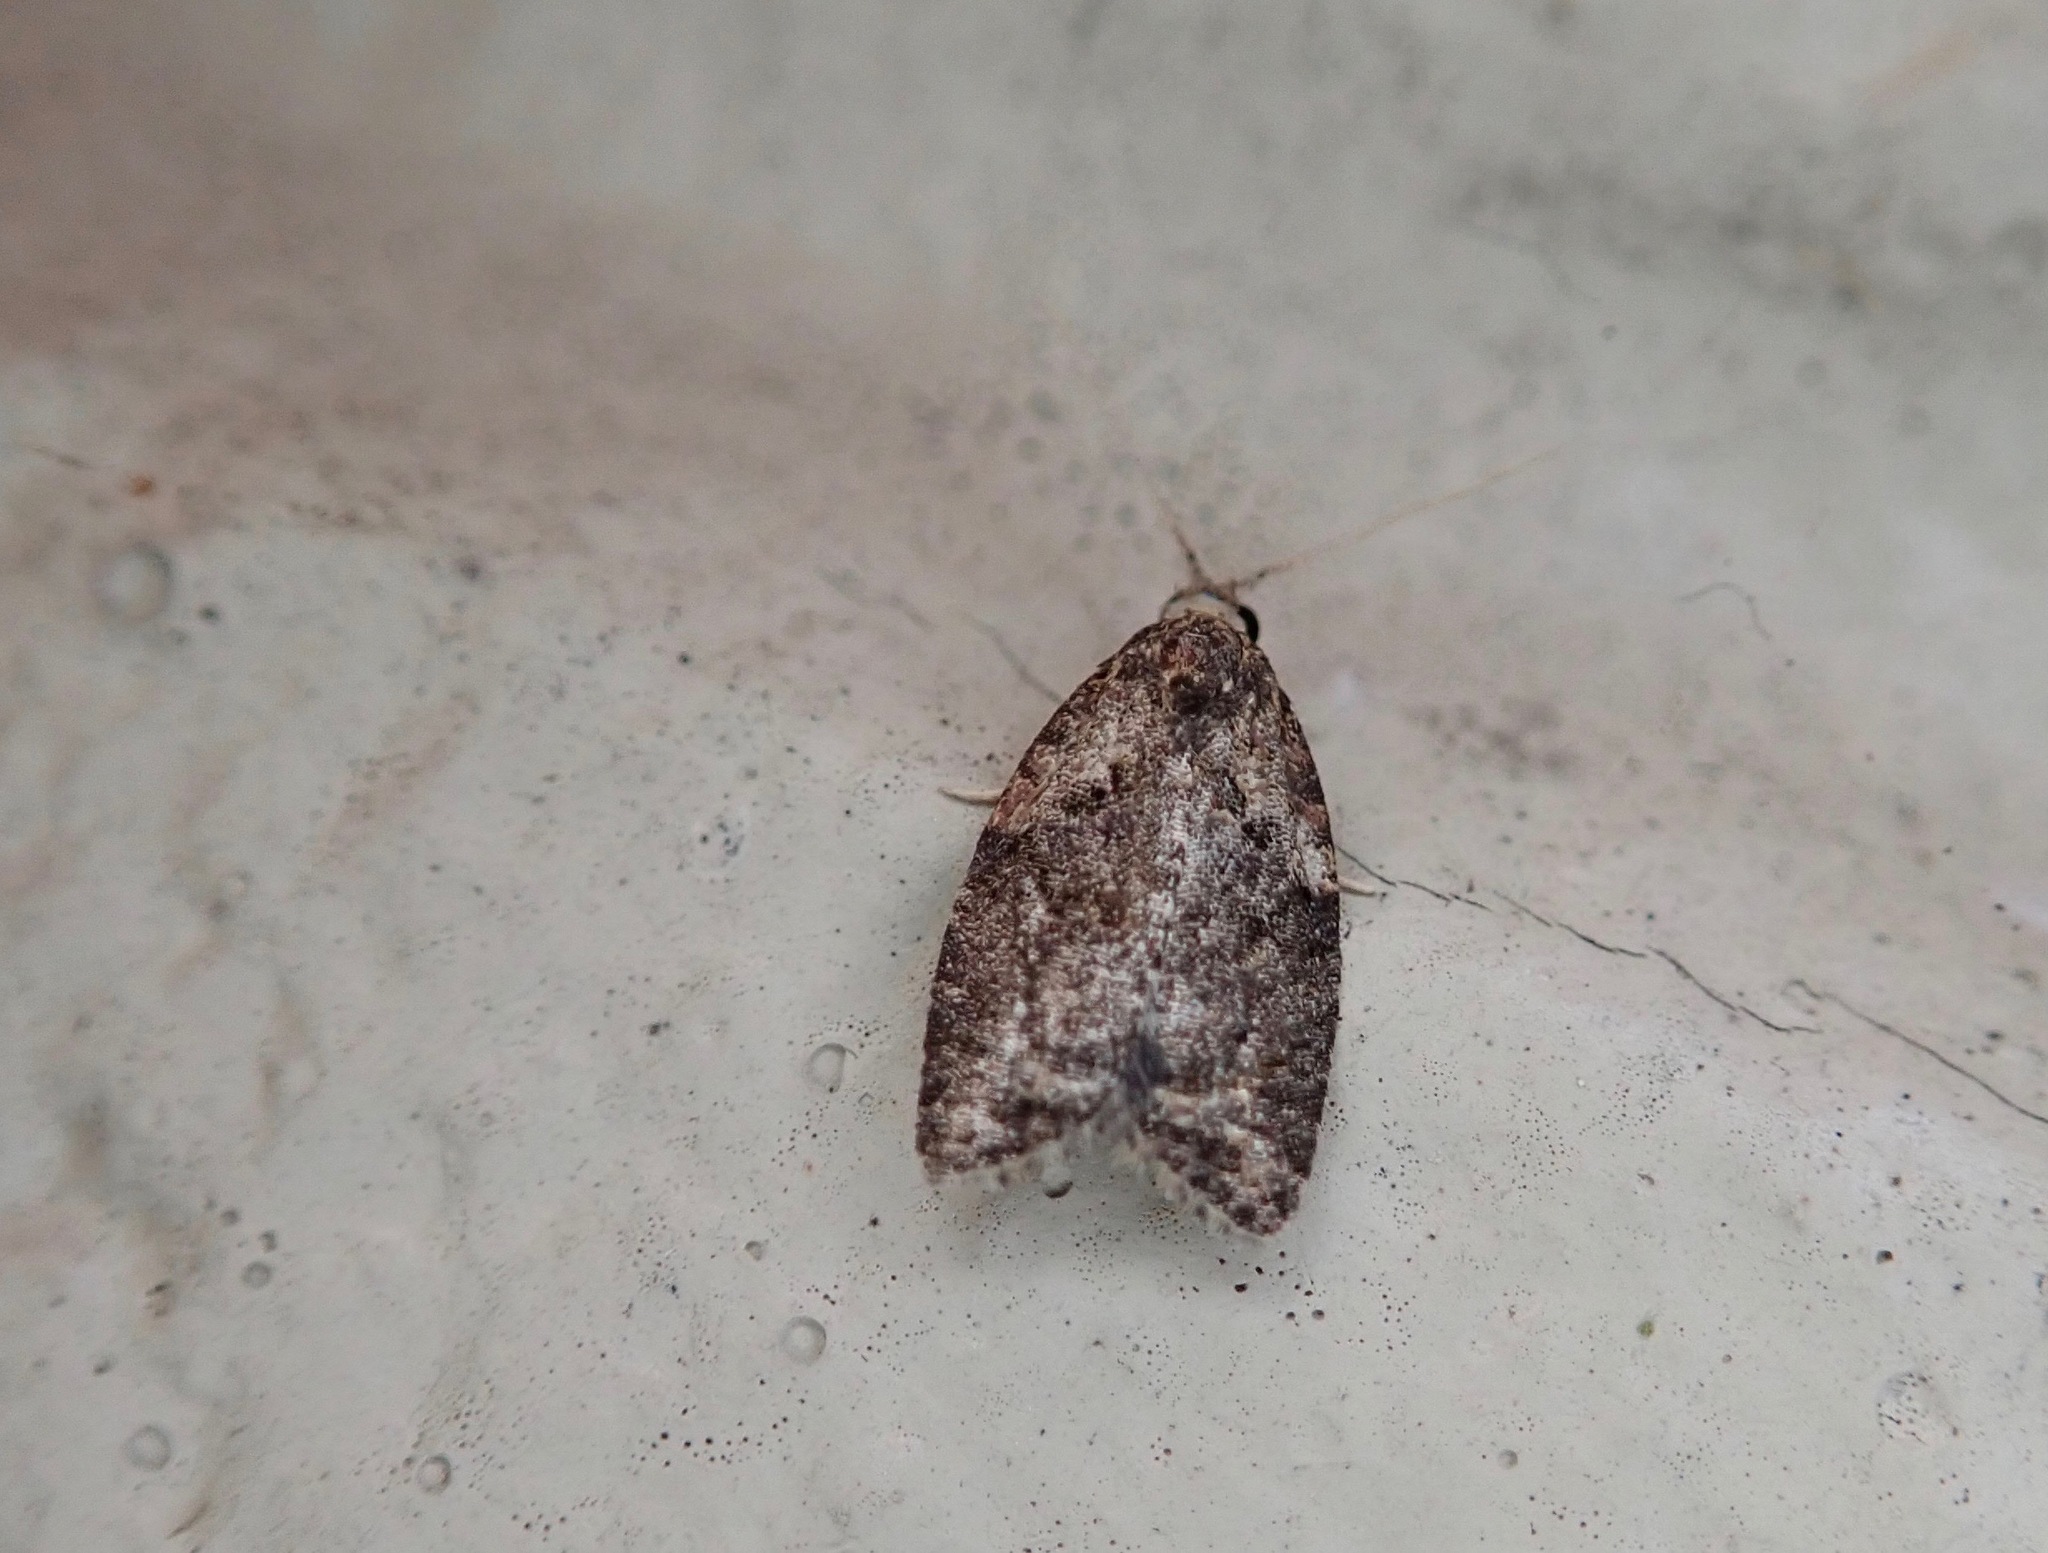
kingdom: Animalia
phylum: Arthropoda
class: Insecta
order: Lepidoptera
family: Tortricidae
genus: Capua
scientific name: Capua intractana
